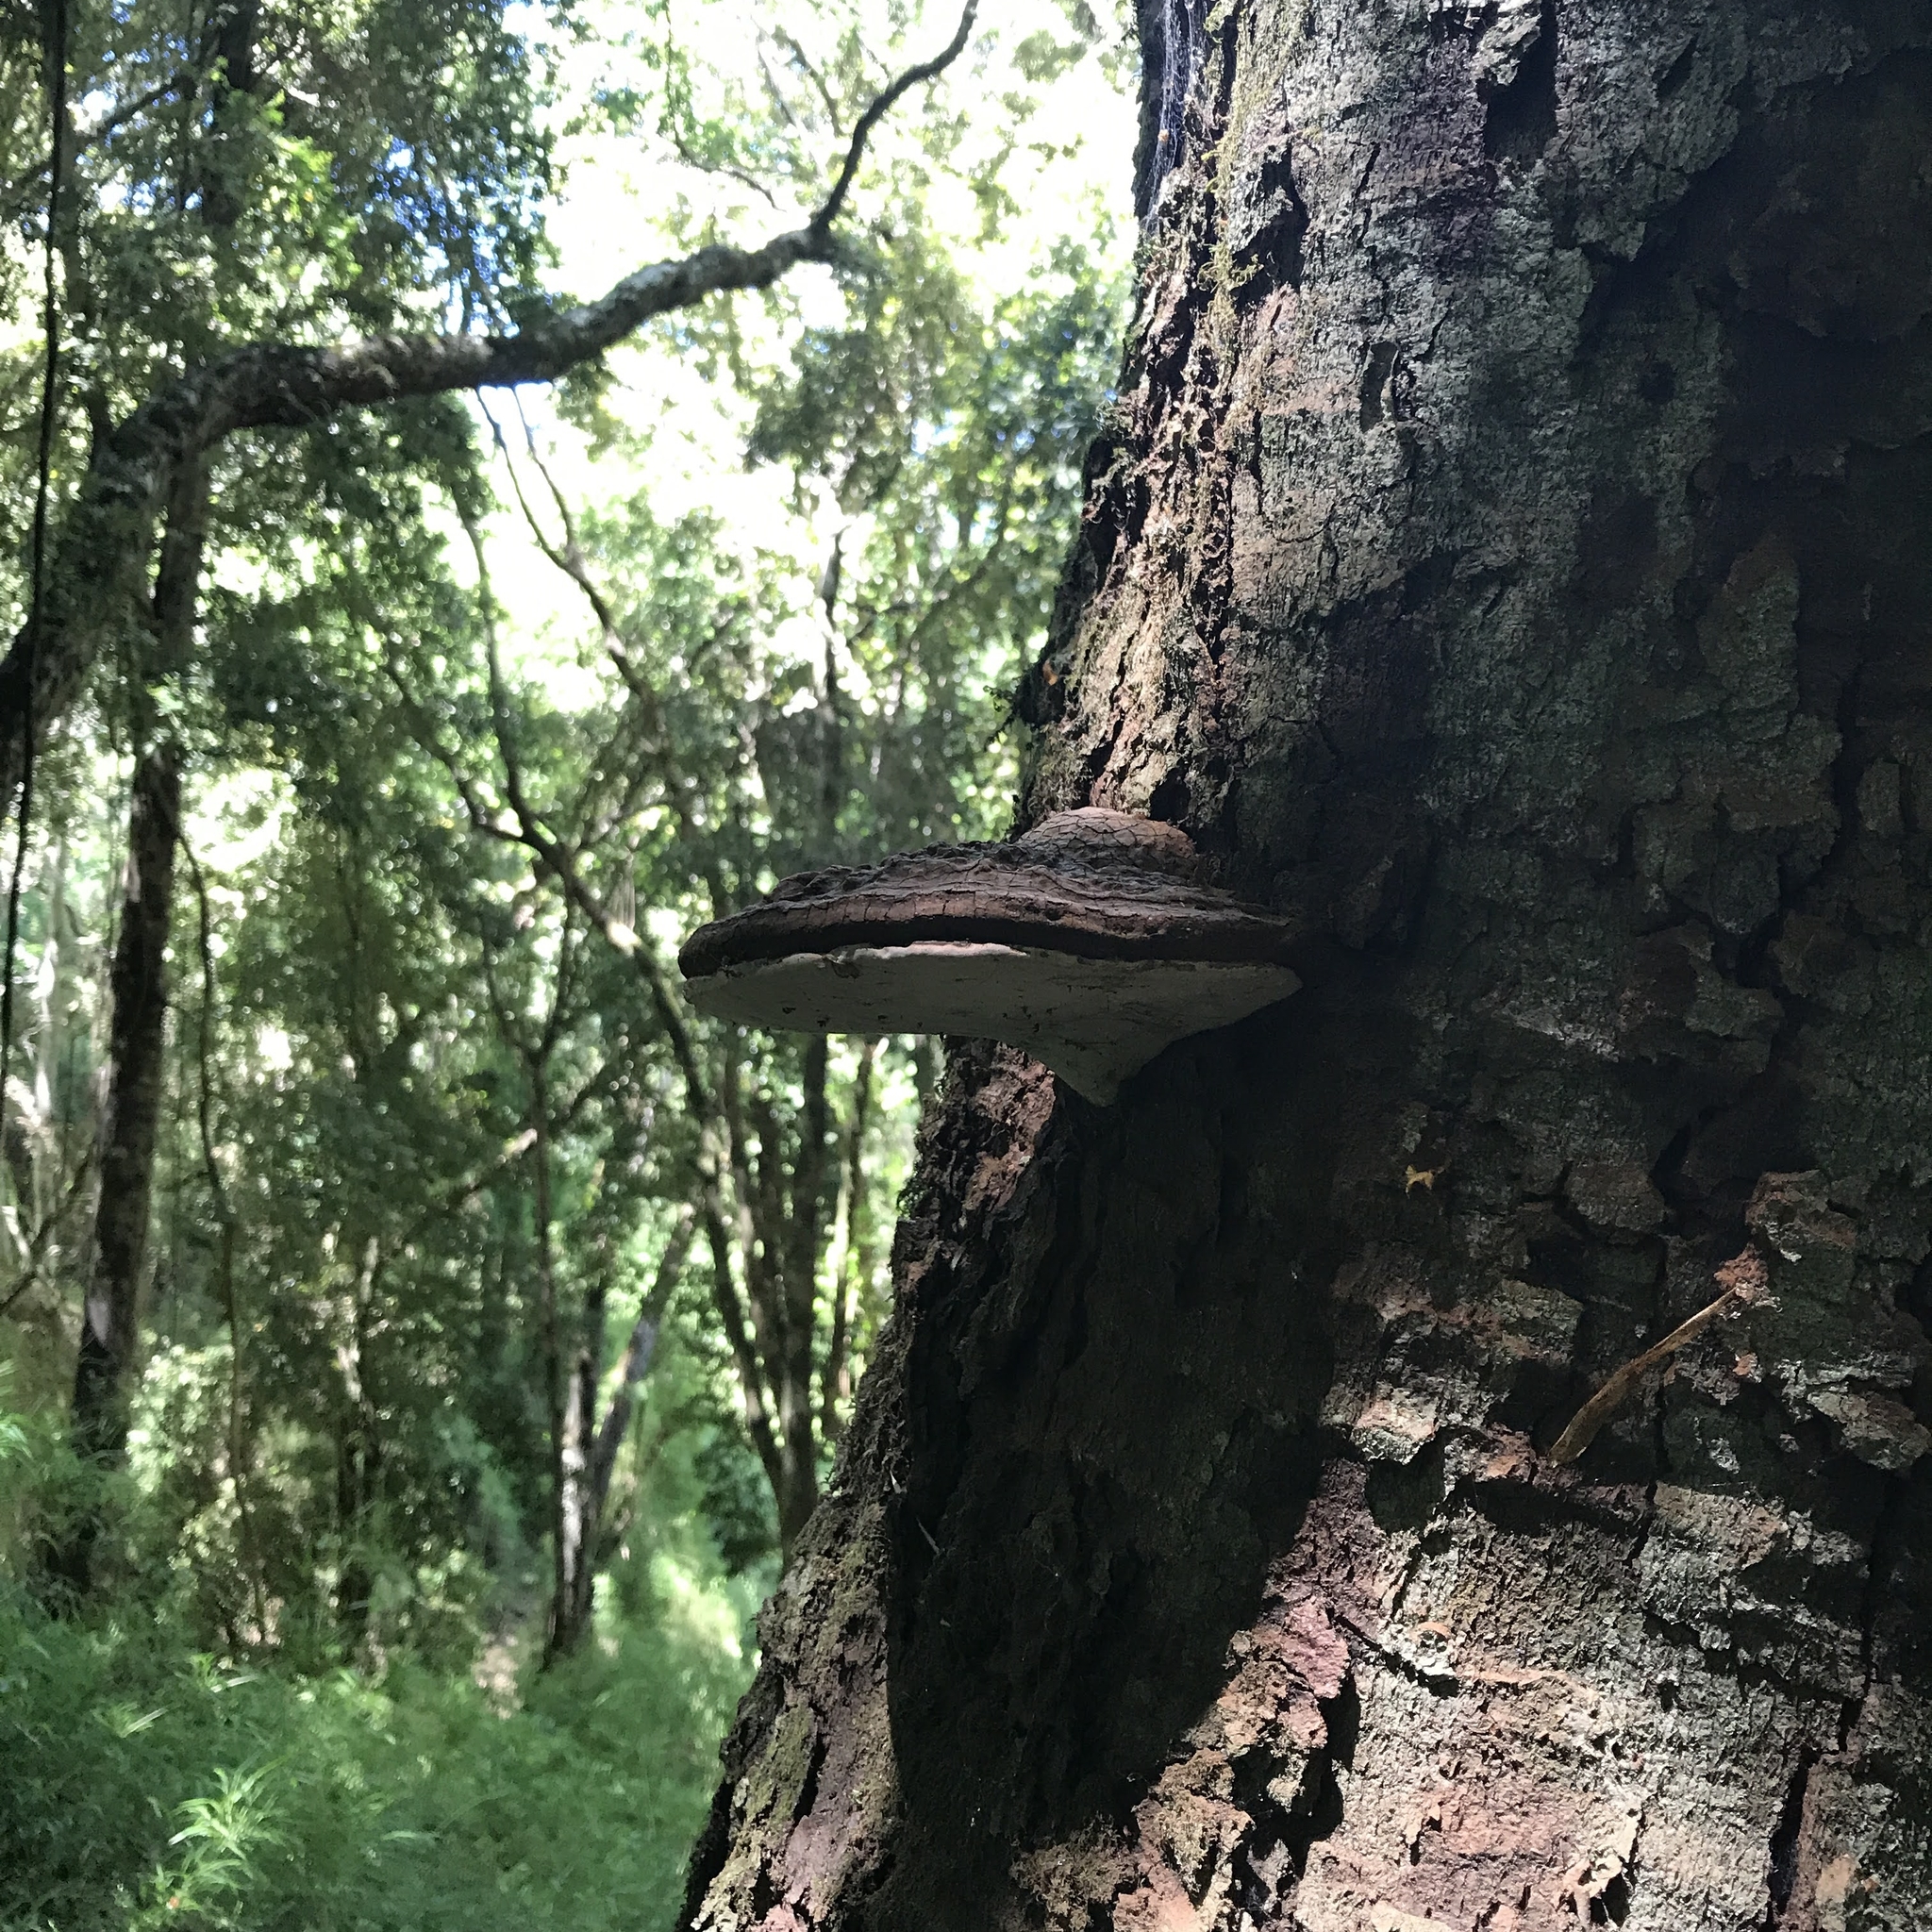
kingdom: Fungi
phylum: Basidiomycota
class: Agaricomycetes
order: Polyporales
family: Polyporaceae
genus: Ganoderma
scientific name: Ganoderma australe
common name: Southern bracket
